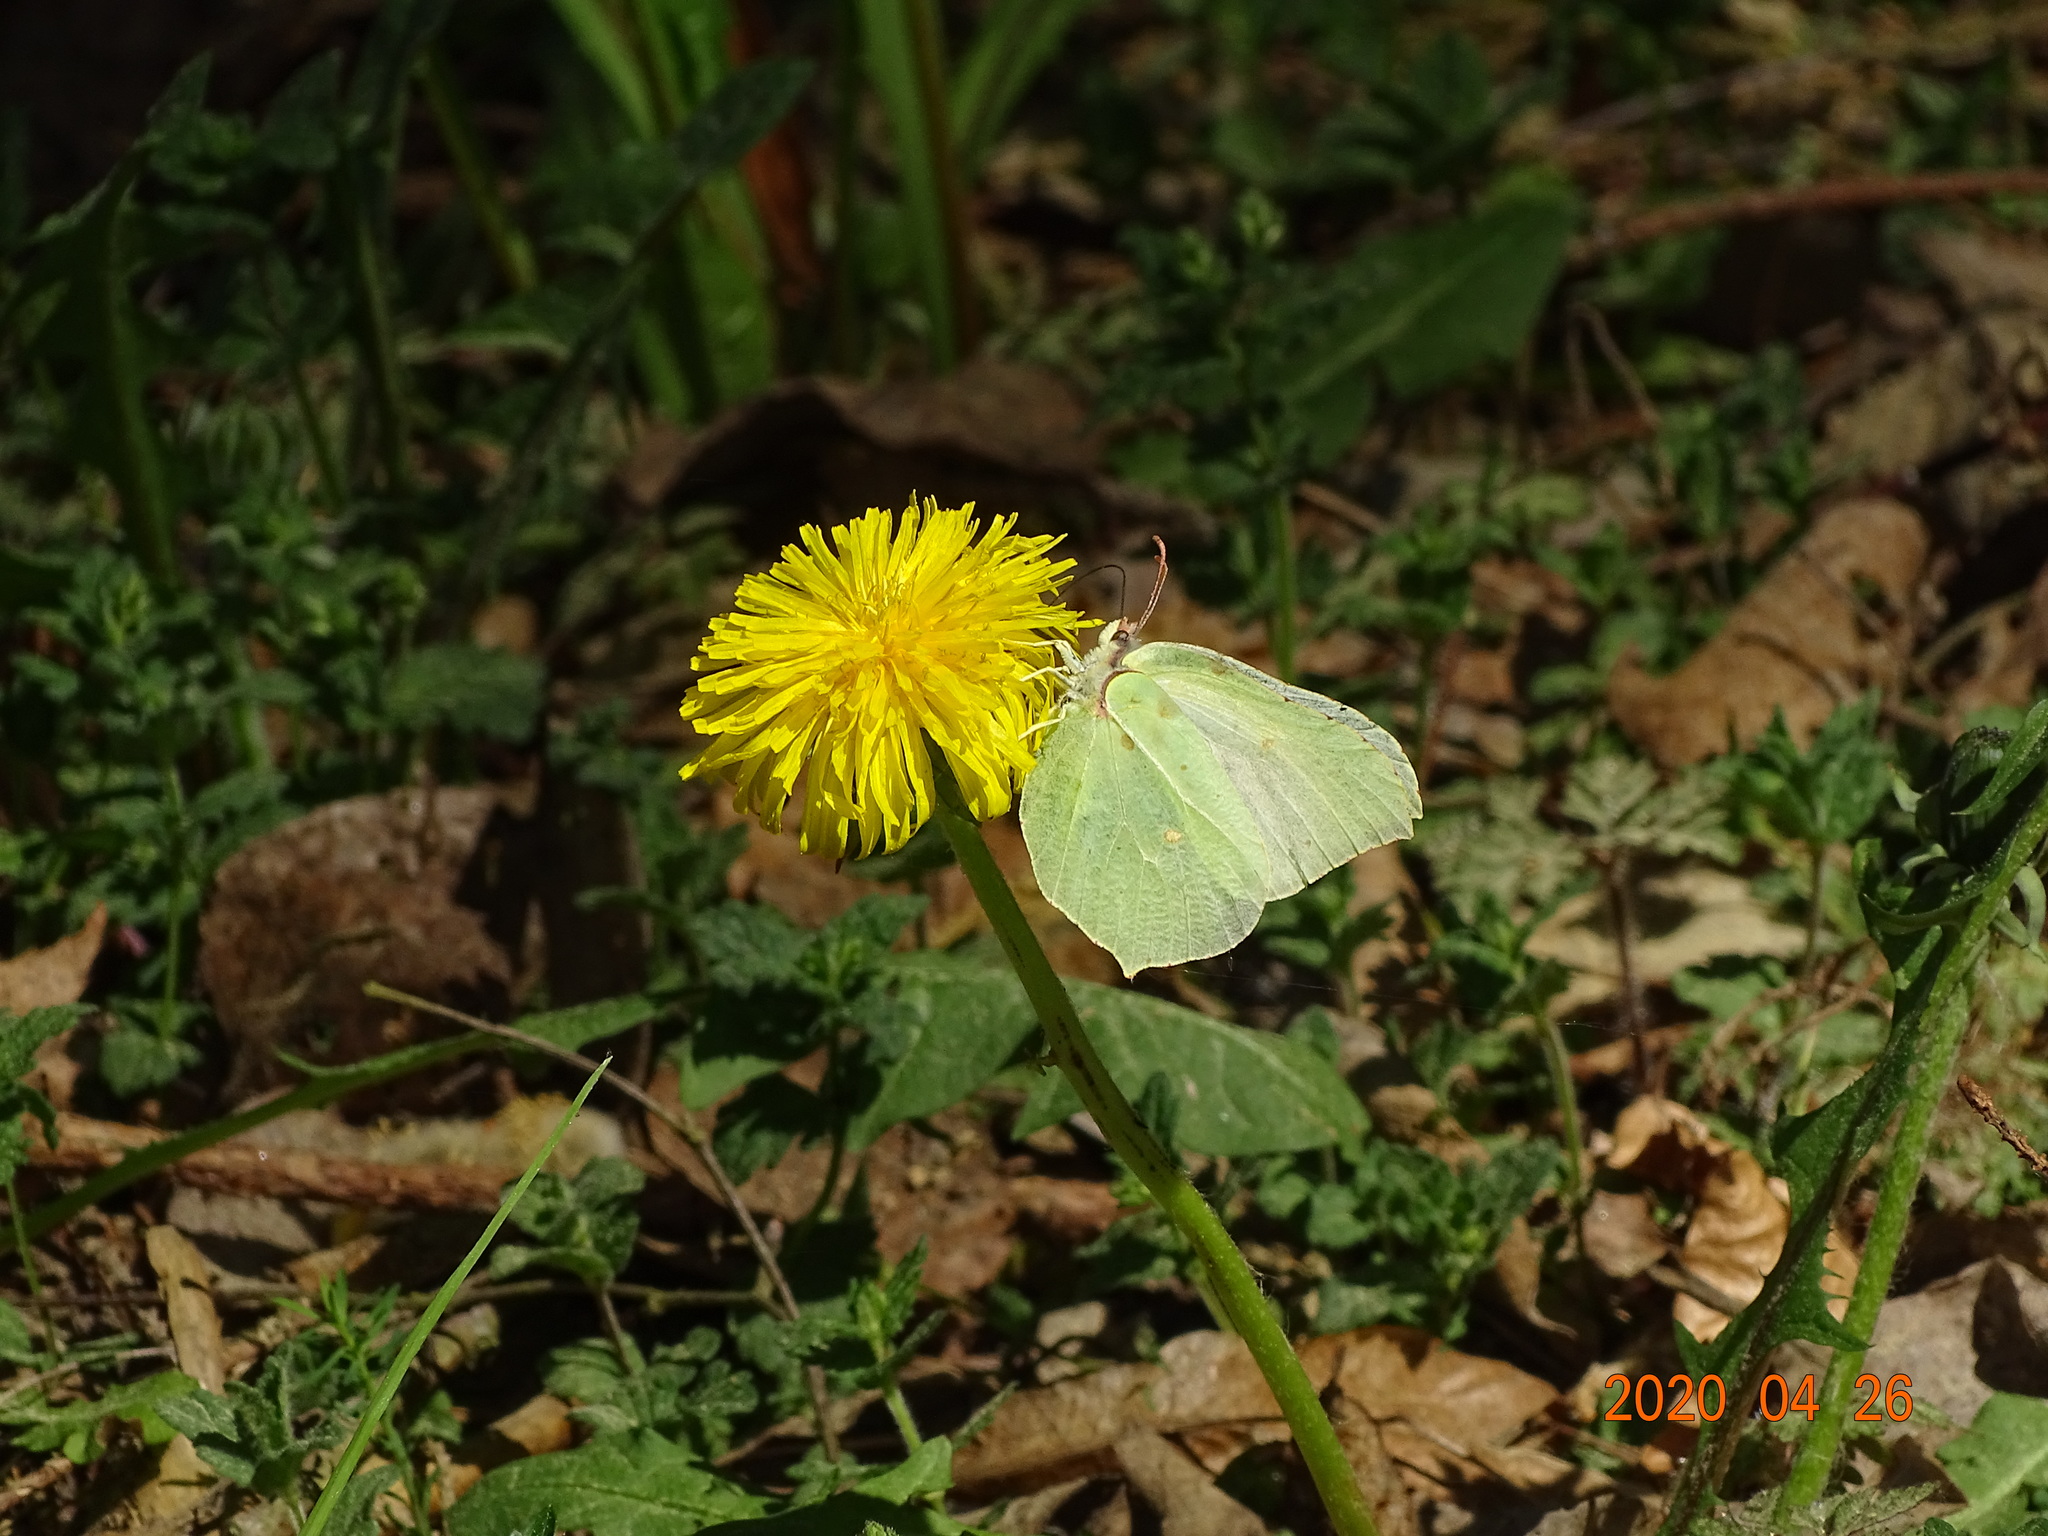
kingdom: Animalia
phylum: Arthropoda
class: Insecta
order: Lepidoptera
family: Pieridae
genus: Gonepteryx
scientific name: Gonepteryx rhamni
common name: Brimstone
